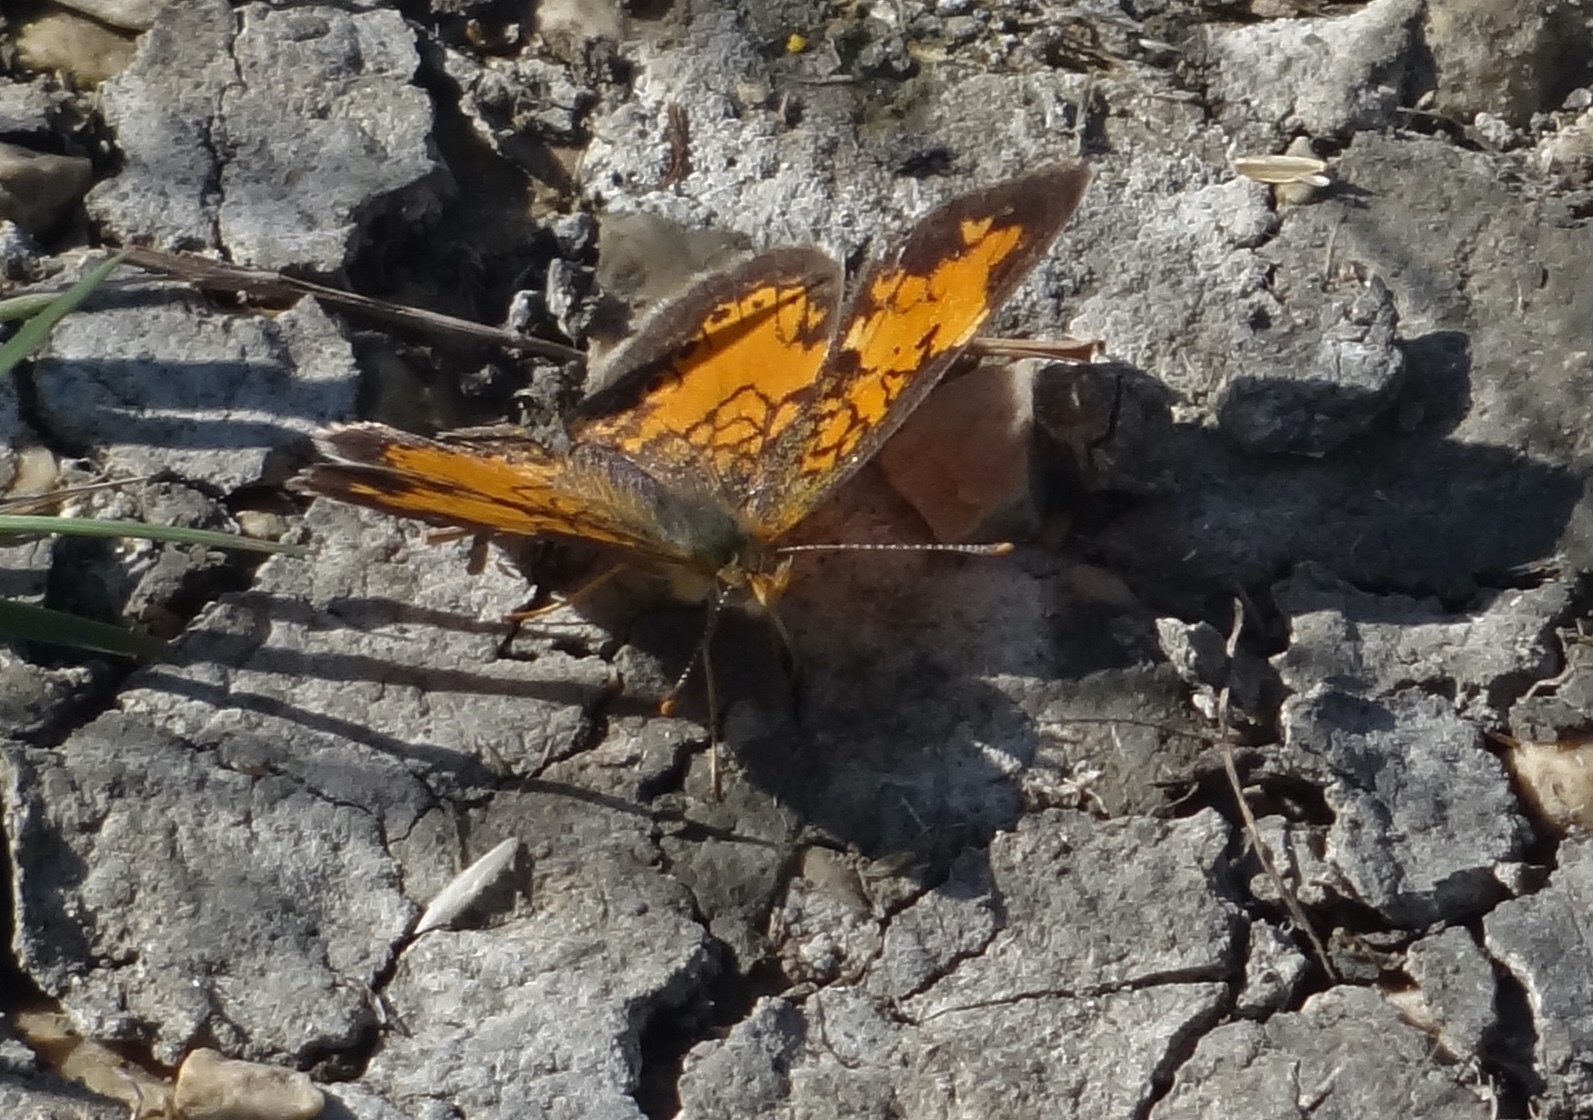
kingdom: Animalia
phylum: Arthropoda
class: Insecta
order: Lepidoptera
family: Nymphalidae
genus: Phyciodes
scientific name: Phyciodes tharos
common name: Pearl crescent
